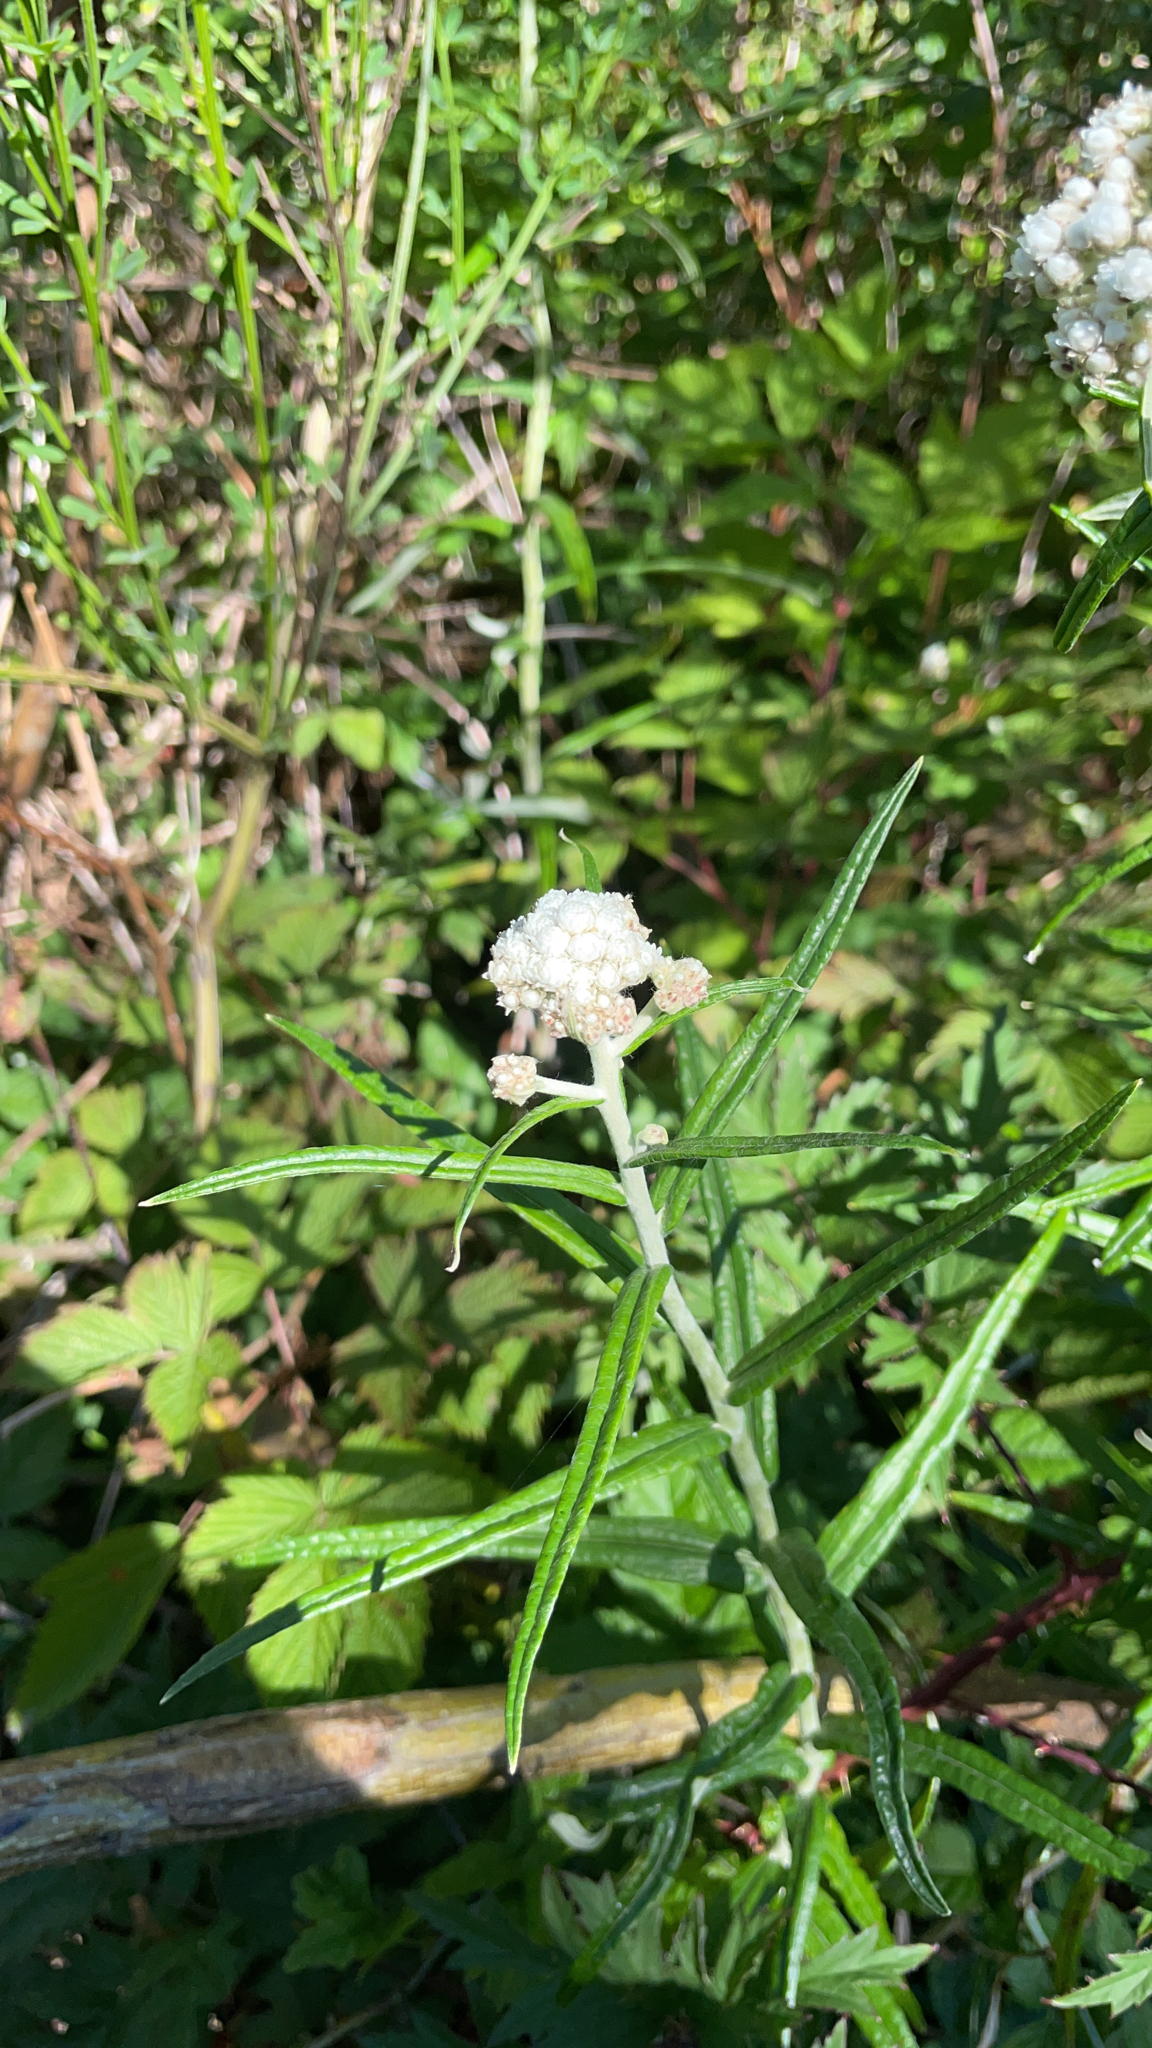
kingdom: Plantae
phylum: Tracheophyta
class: Magnoliopsida
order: Asterales
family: Asteraceae
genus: Anaphalis
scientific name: Anaphalis margaritacea
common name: Pearly everlasting
